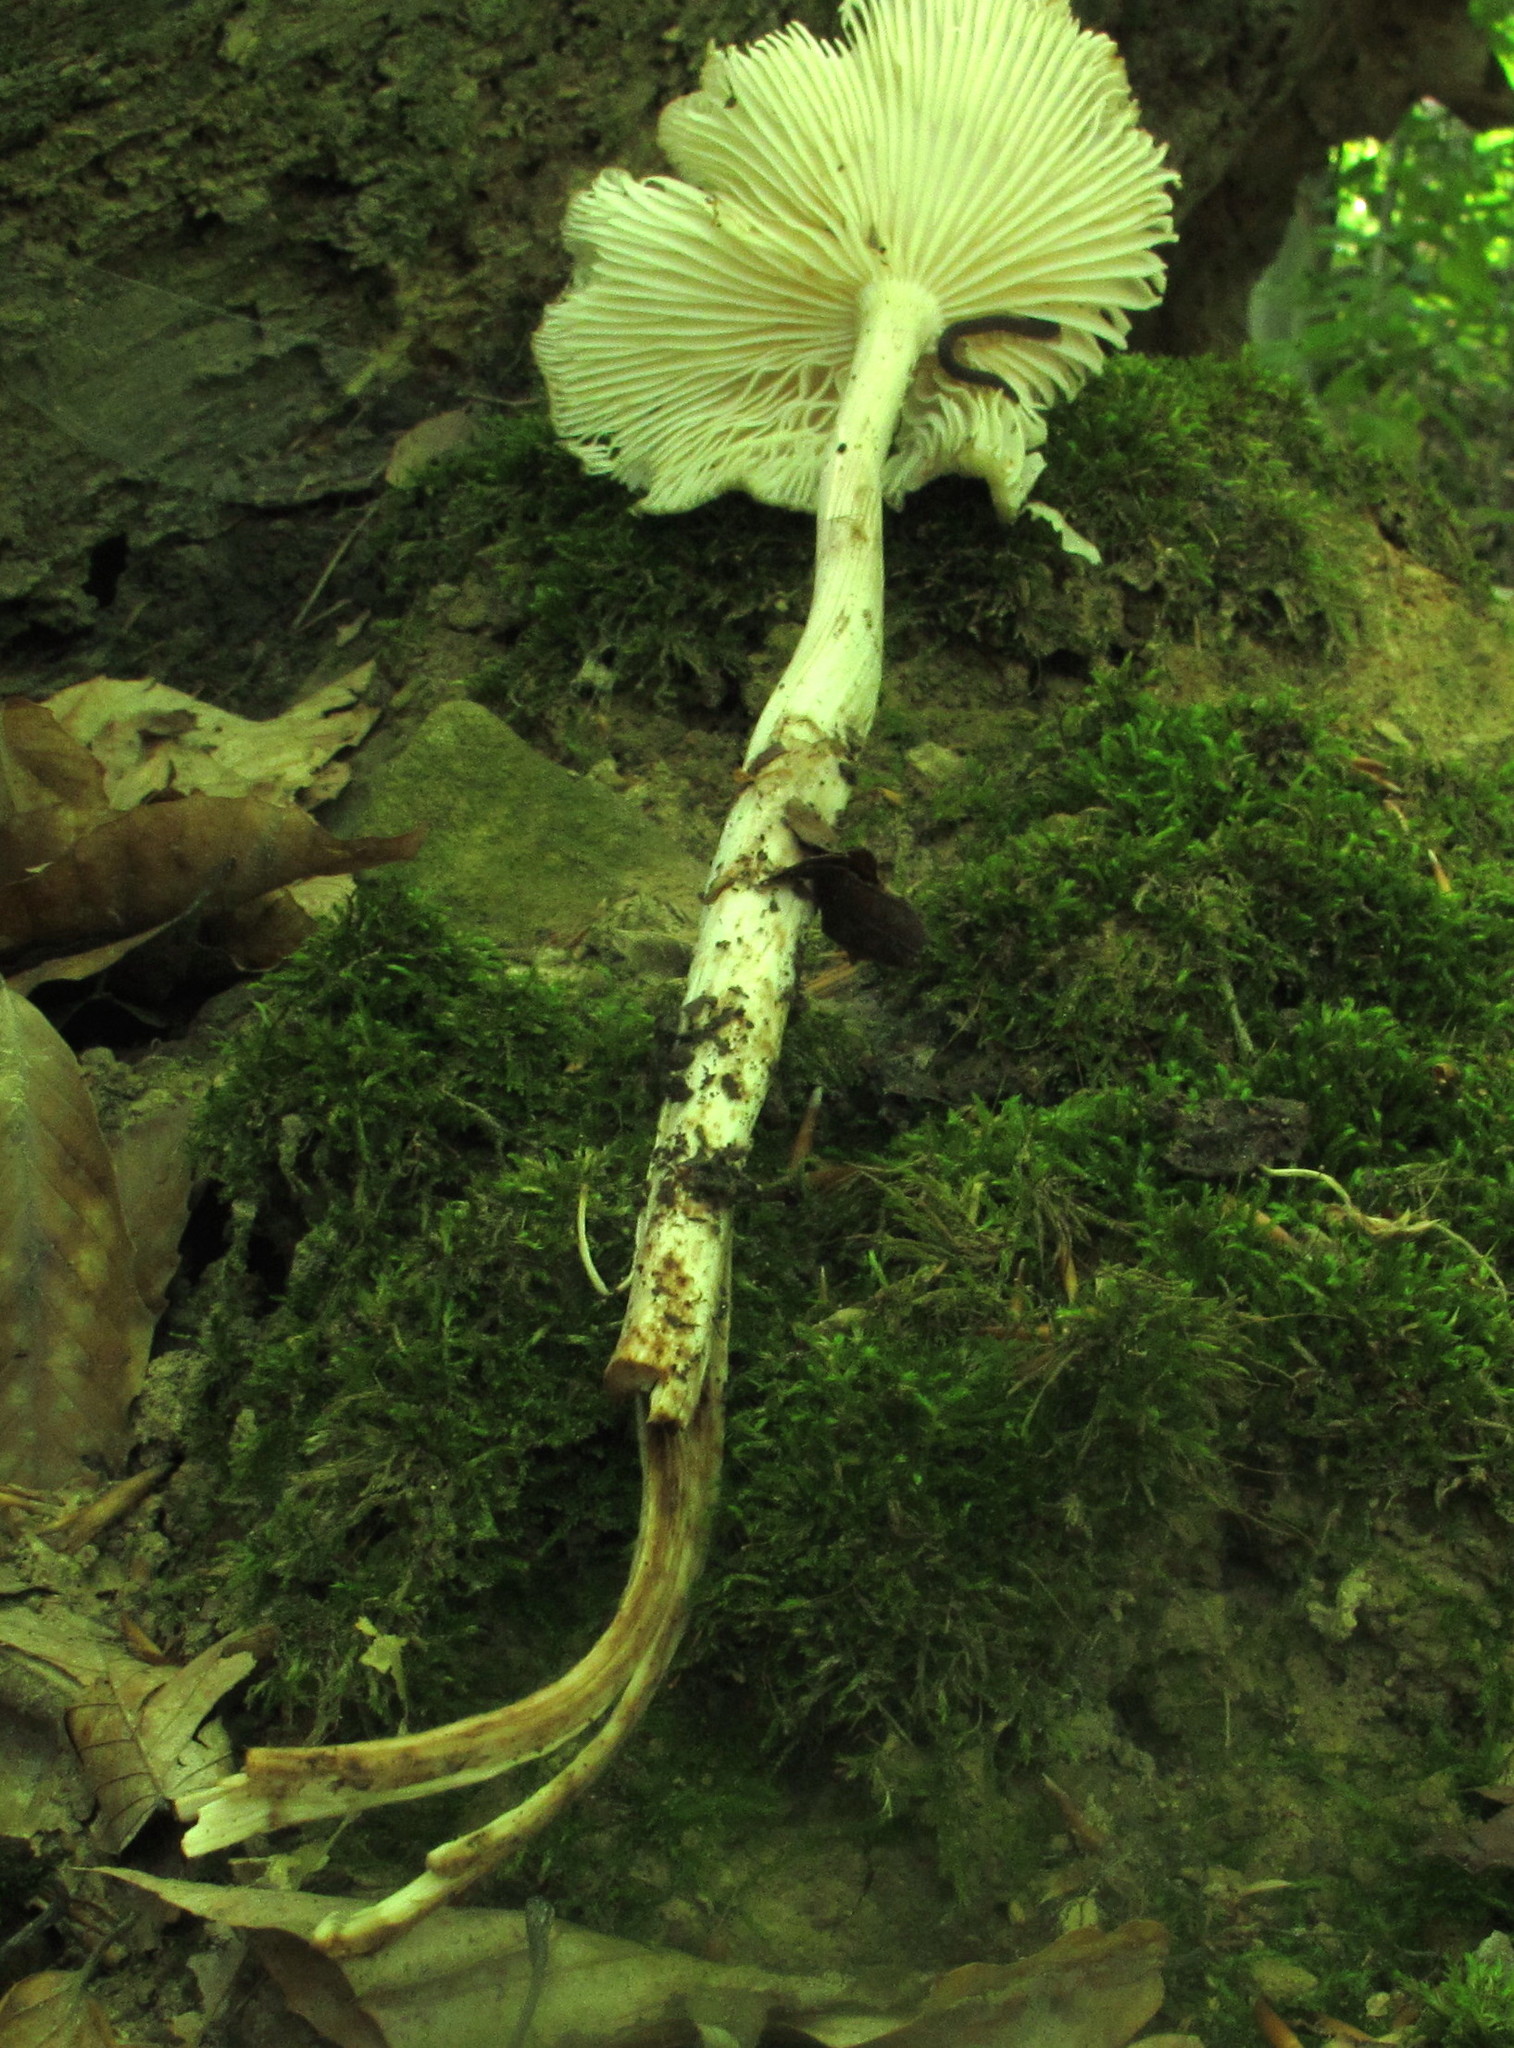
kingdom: Fungi
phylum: Basidiomycota
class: Agaricomycetes
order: Agaricales
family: Physalacriaceae
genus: Hymenopellis
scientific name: Hymenopellis megalospora
